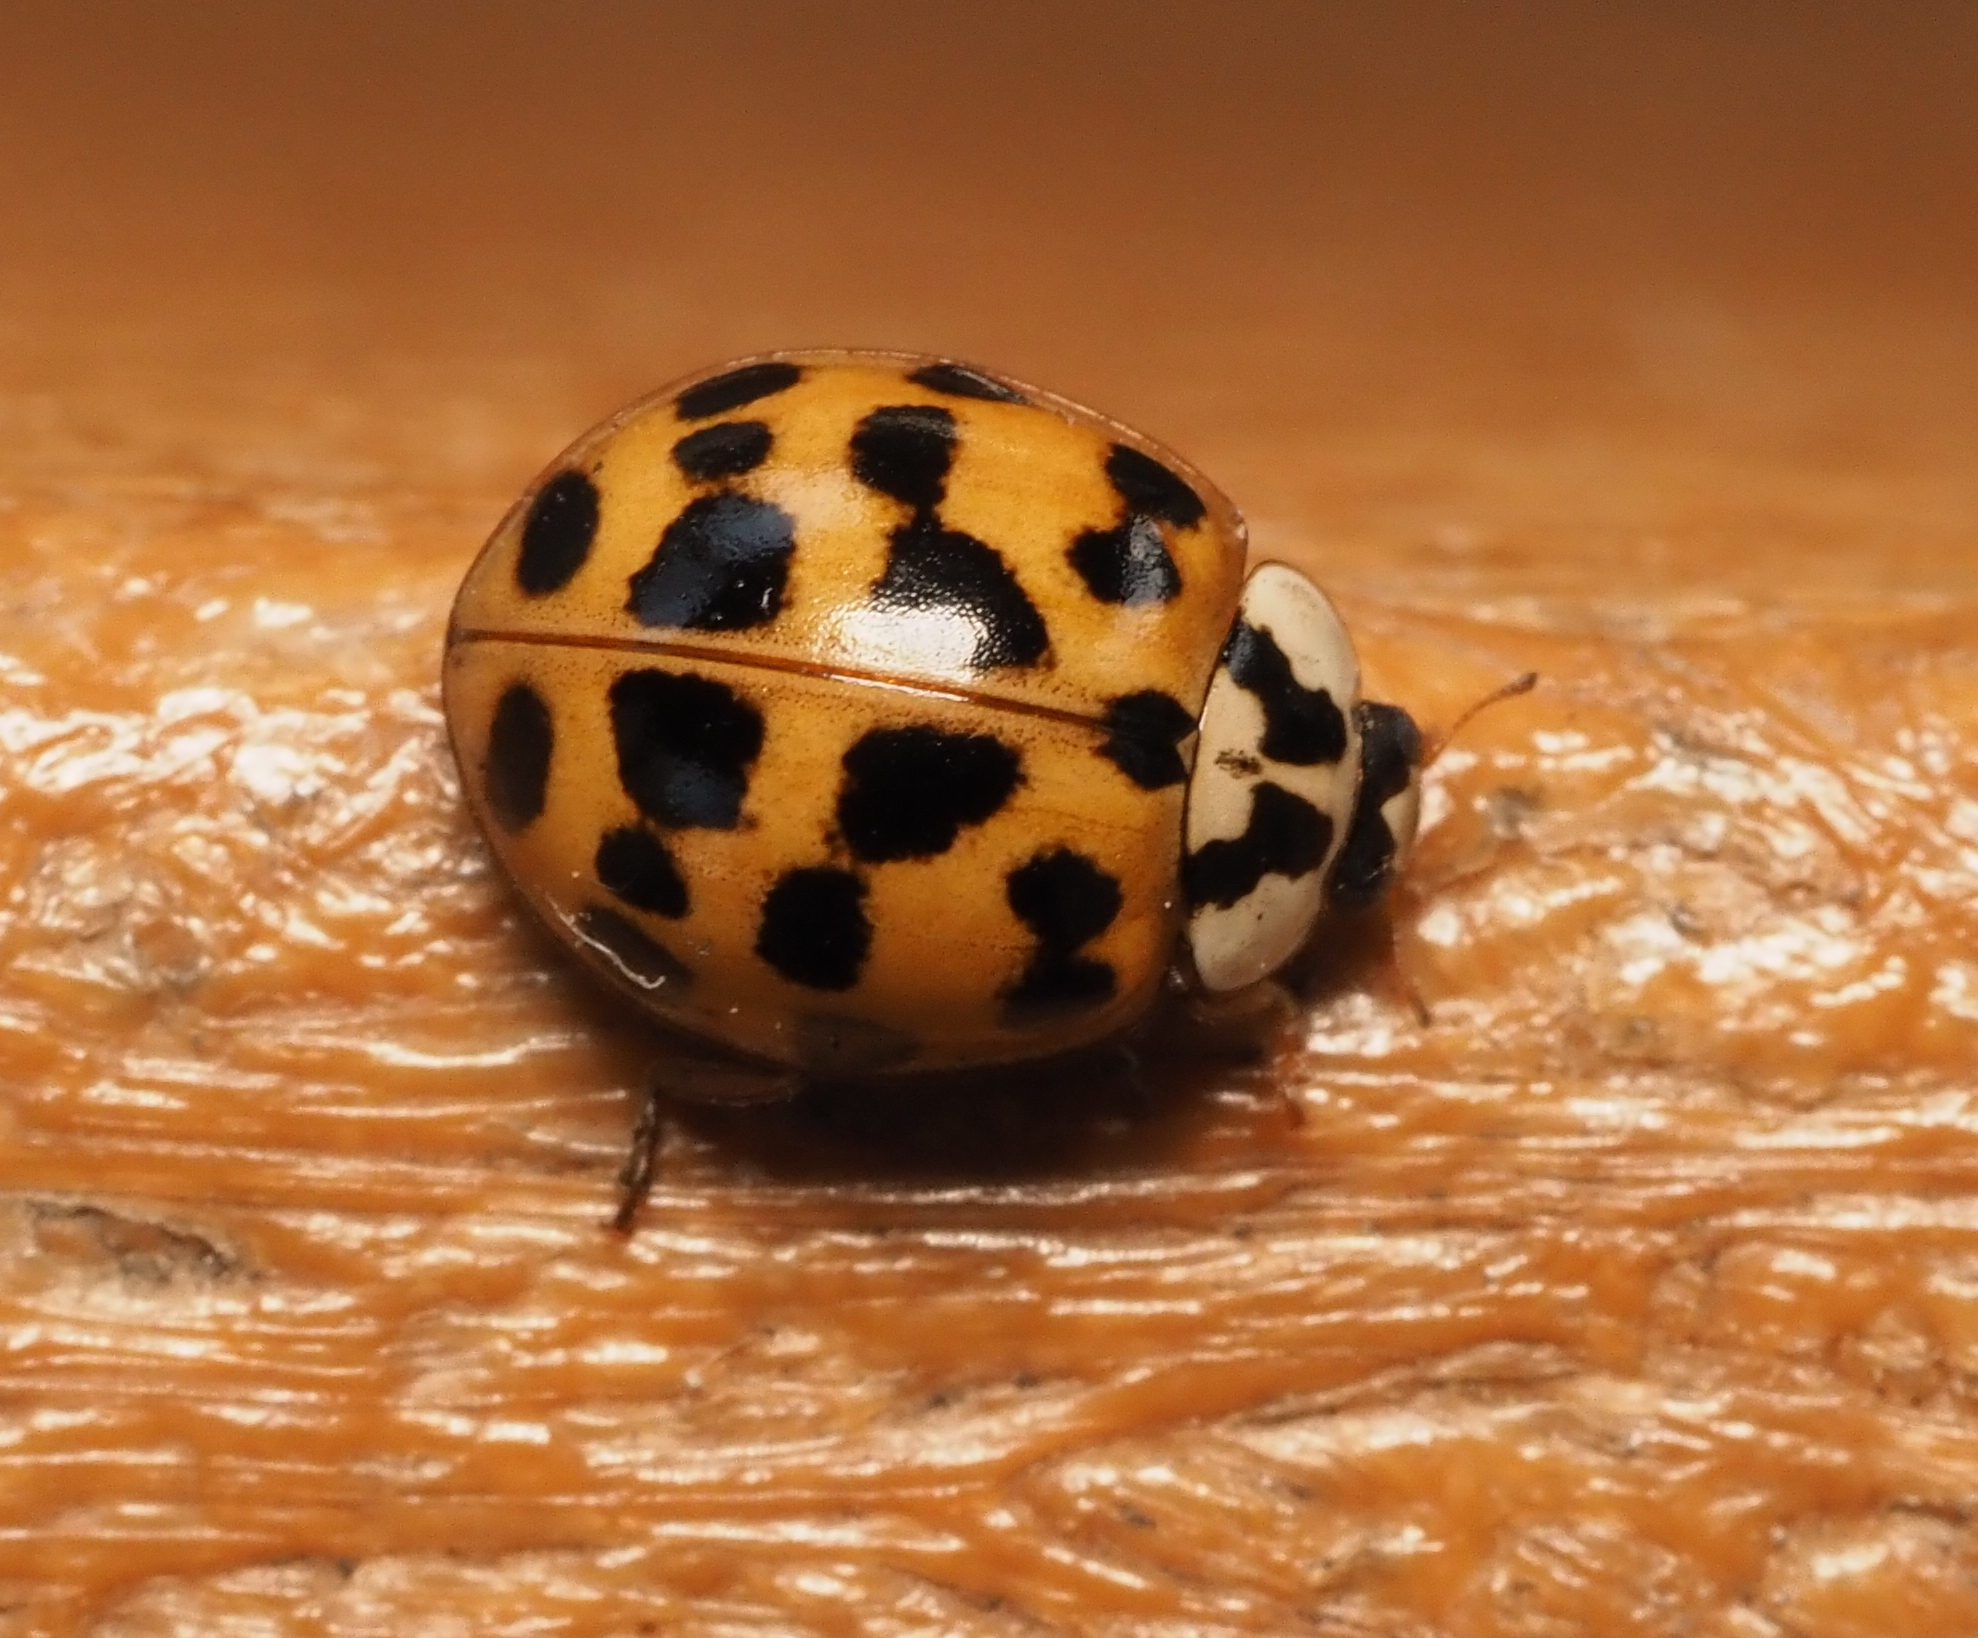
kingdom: Animalia
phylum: Arthropoda
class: Insecta
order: Coleoptera
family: Coccinellidae
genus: Harmonia
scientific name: Harmonia axyridis
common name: Harlequin ladybird
